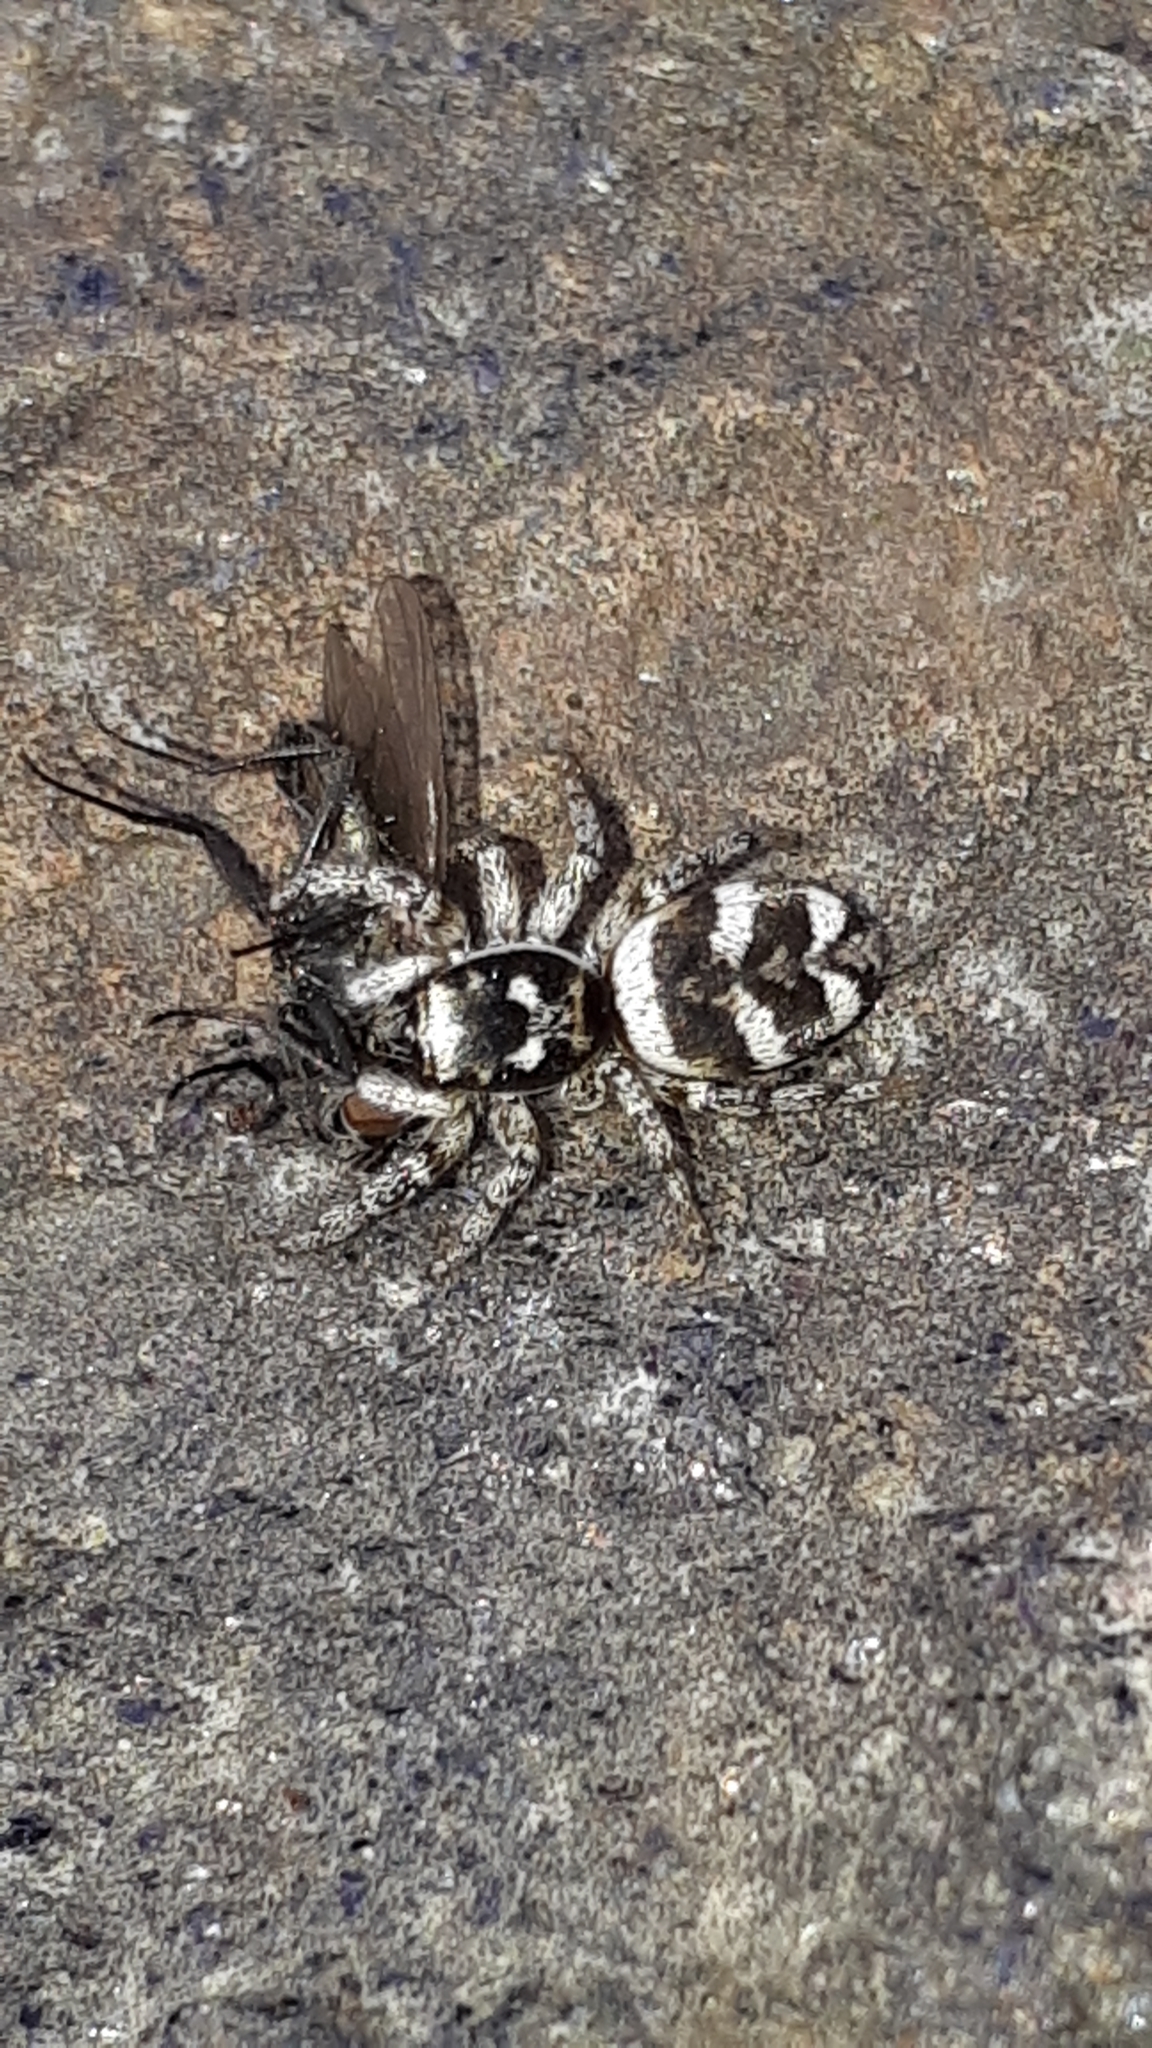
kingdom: Animalia
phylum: Arthropoda
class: Arachnida
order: Araneae
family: Salticidae
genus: Salticus
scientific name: Salticus scenicus
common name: Zebra jumper
